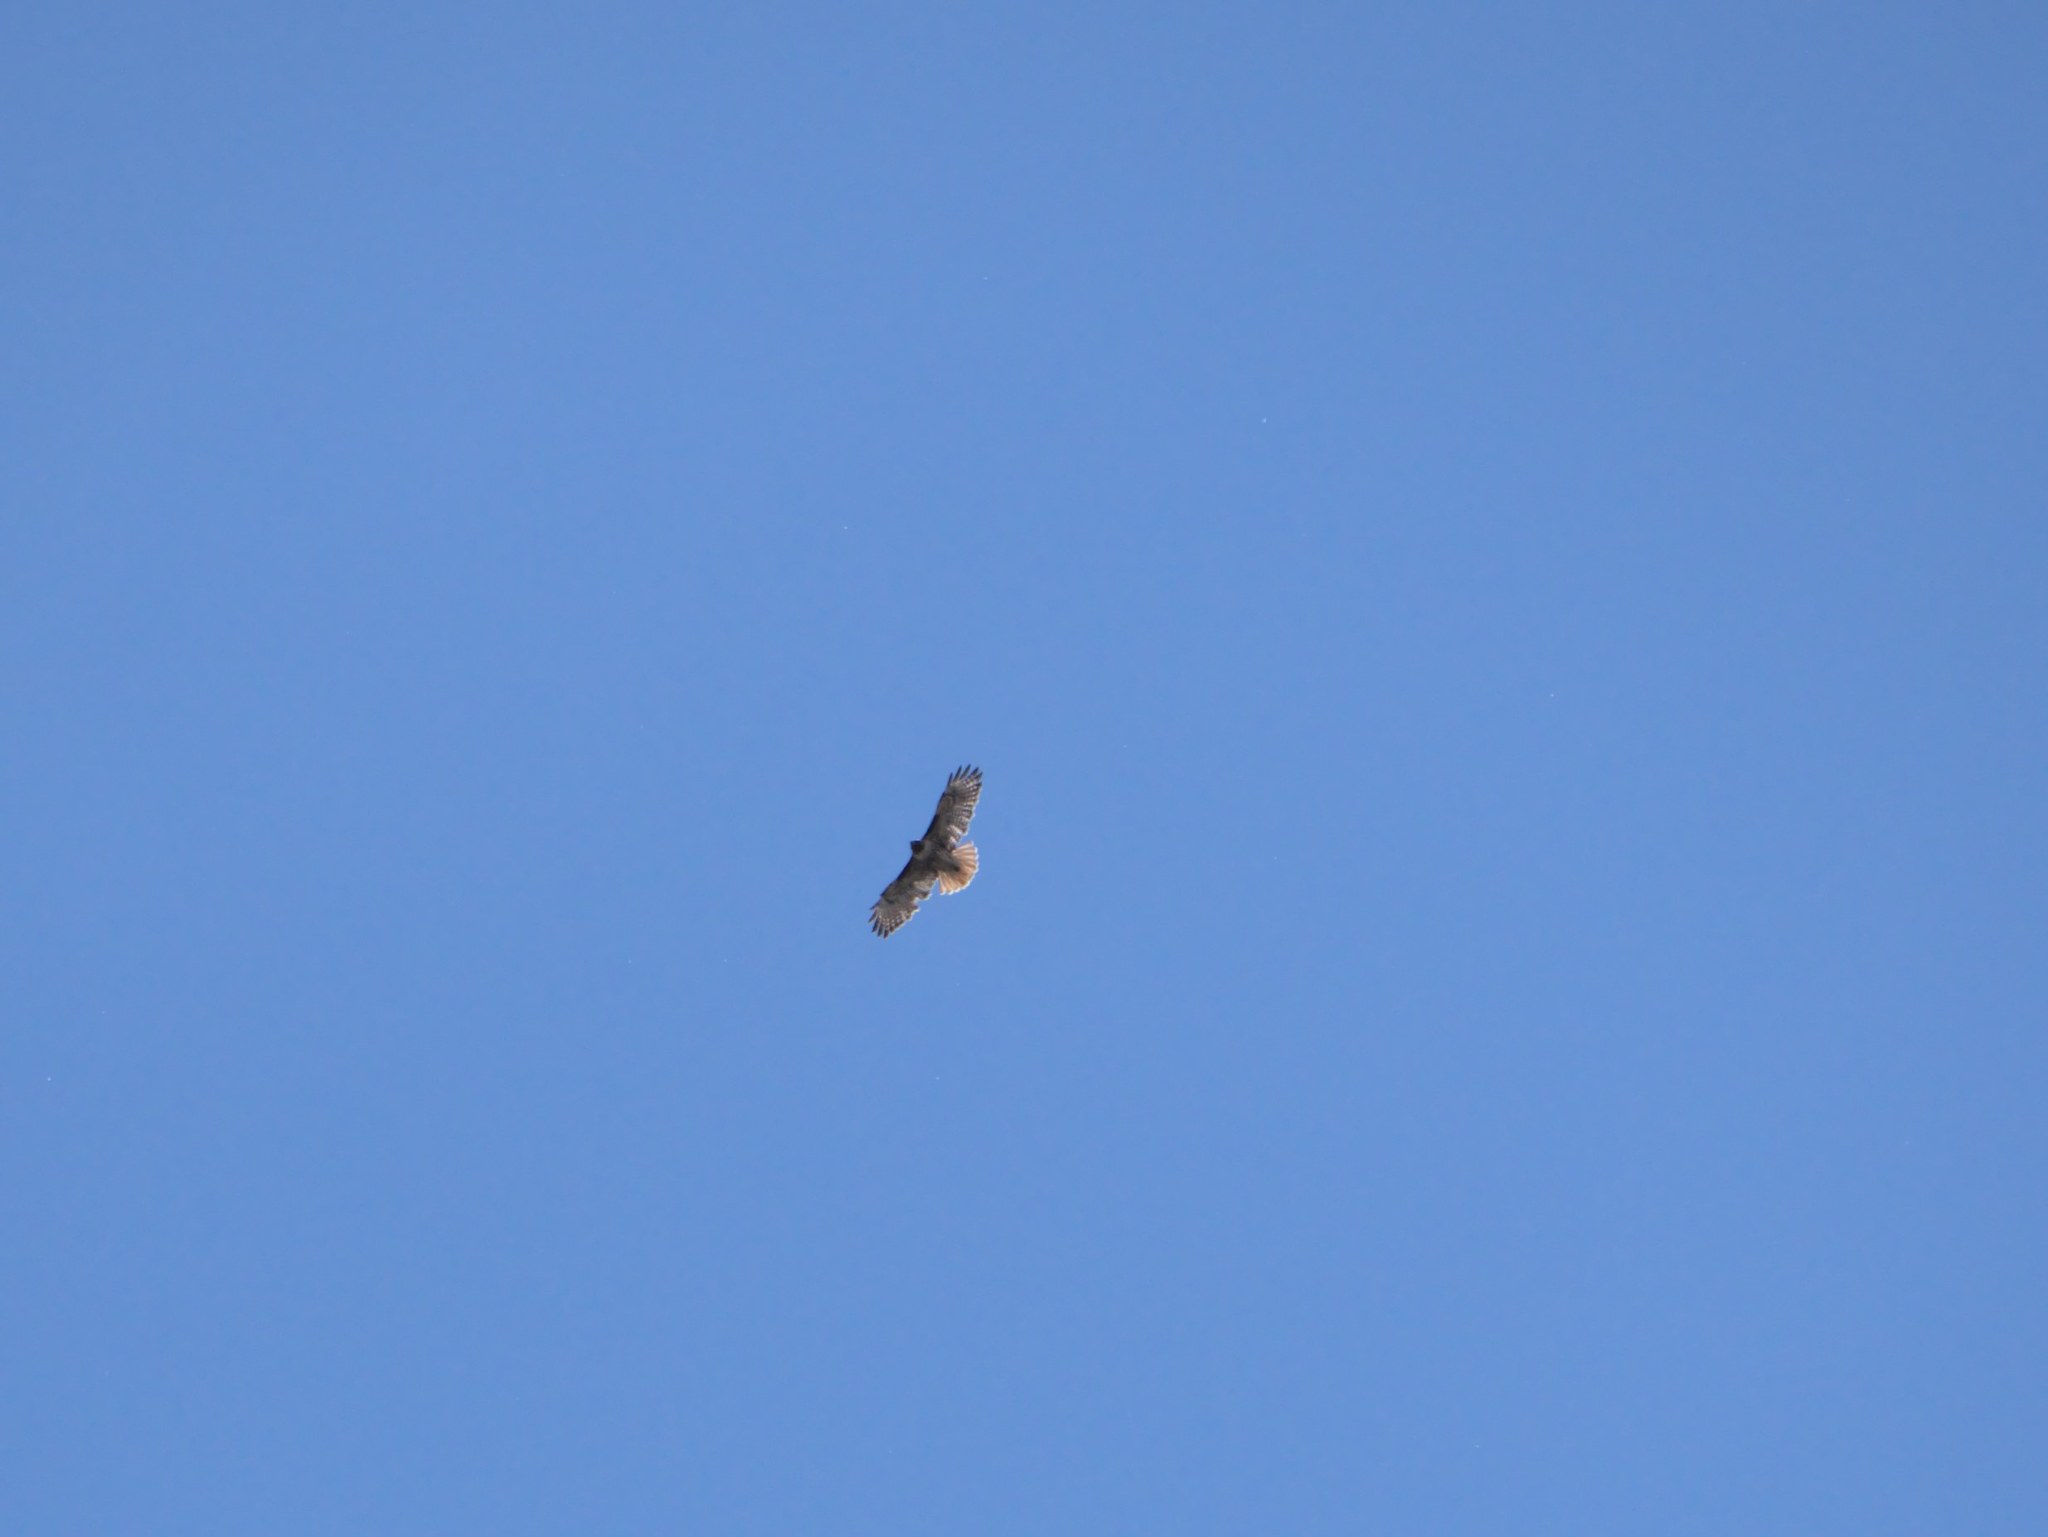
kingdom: Animalia
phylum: Chordata
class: Aves
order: Accipitriformes
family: Accipitridae
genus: Buteo
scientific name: Buteo jamaicensis
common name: Red-tailed hawk
